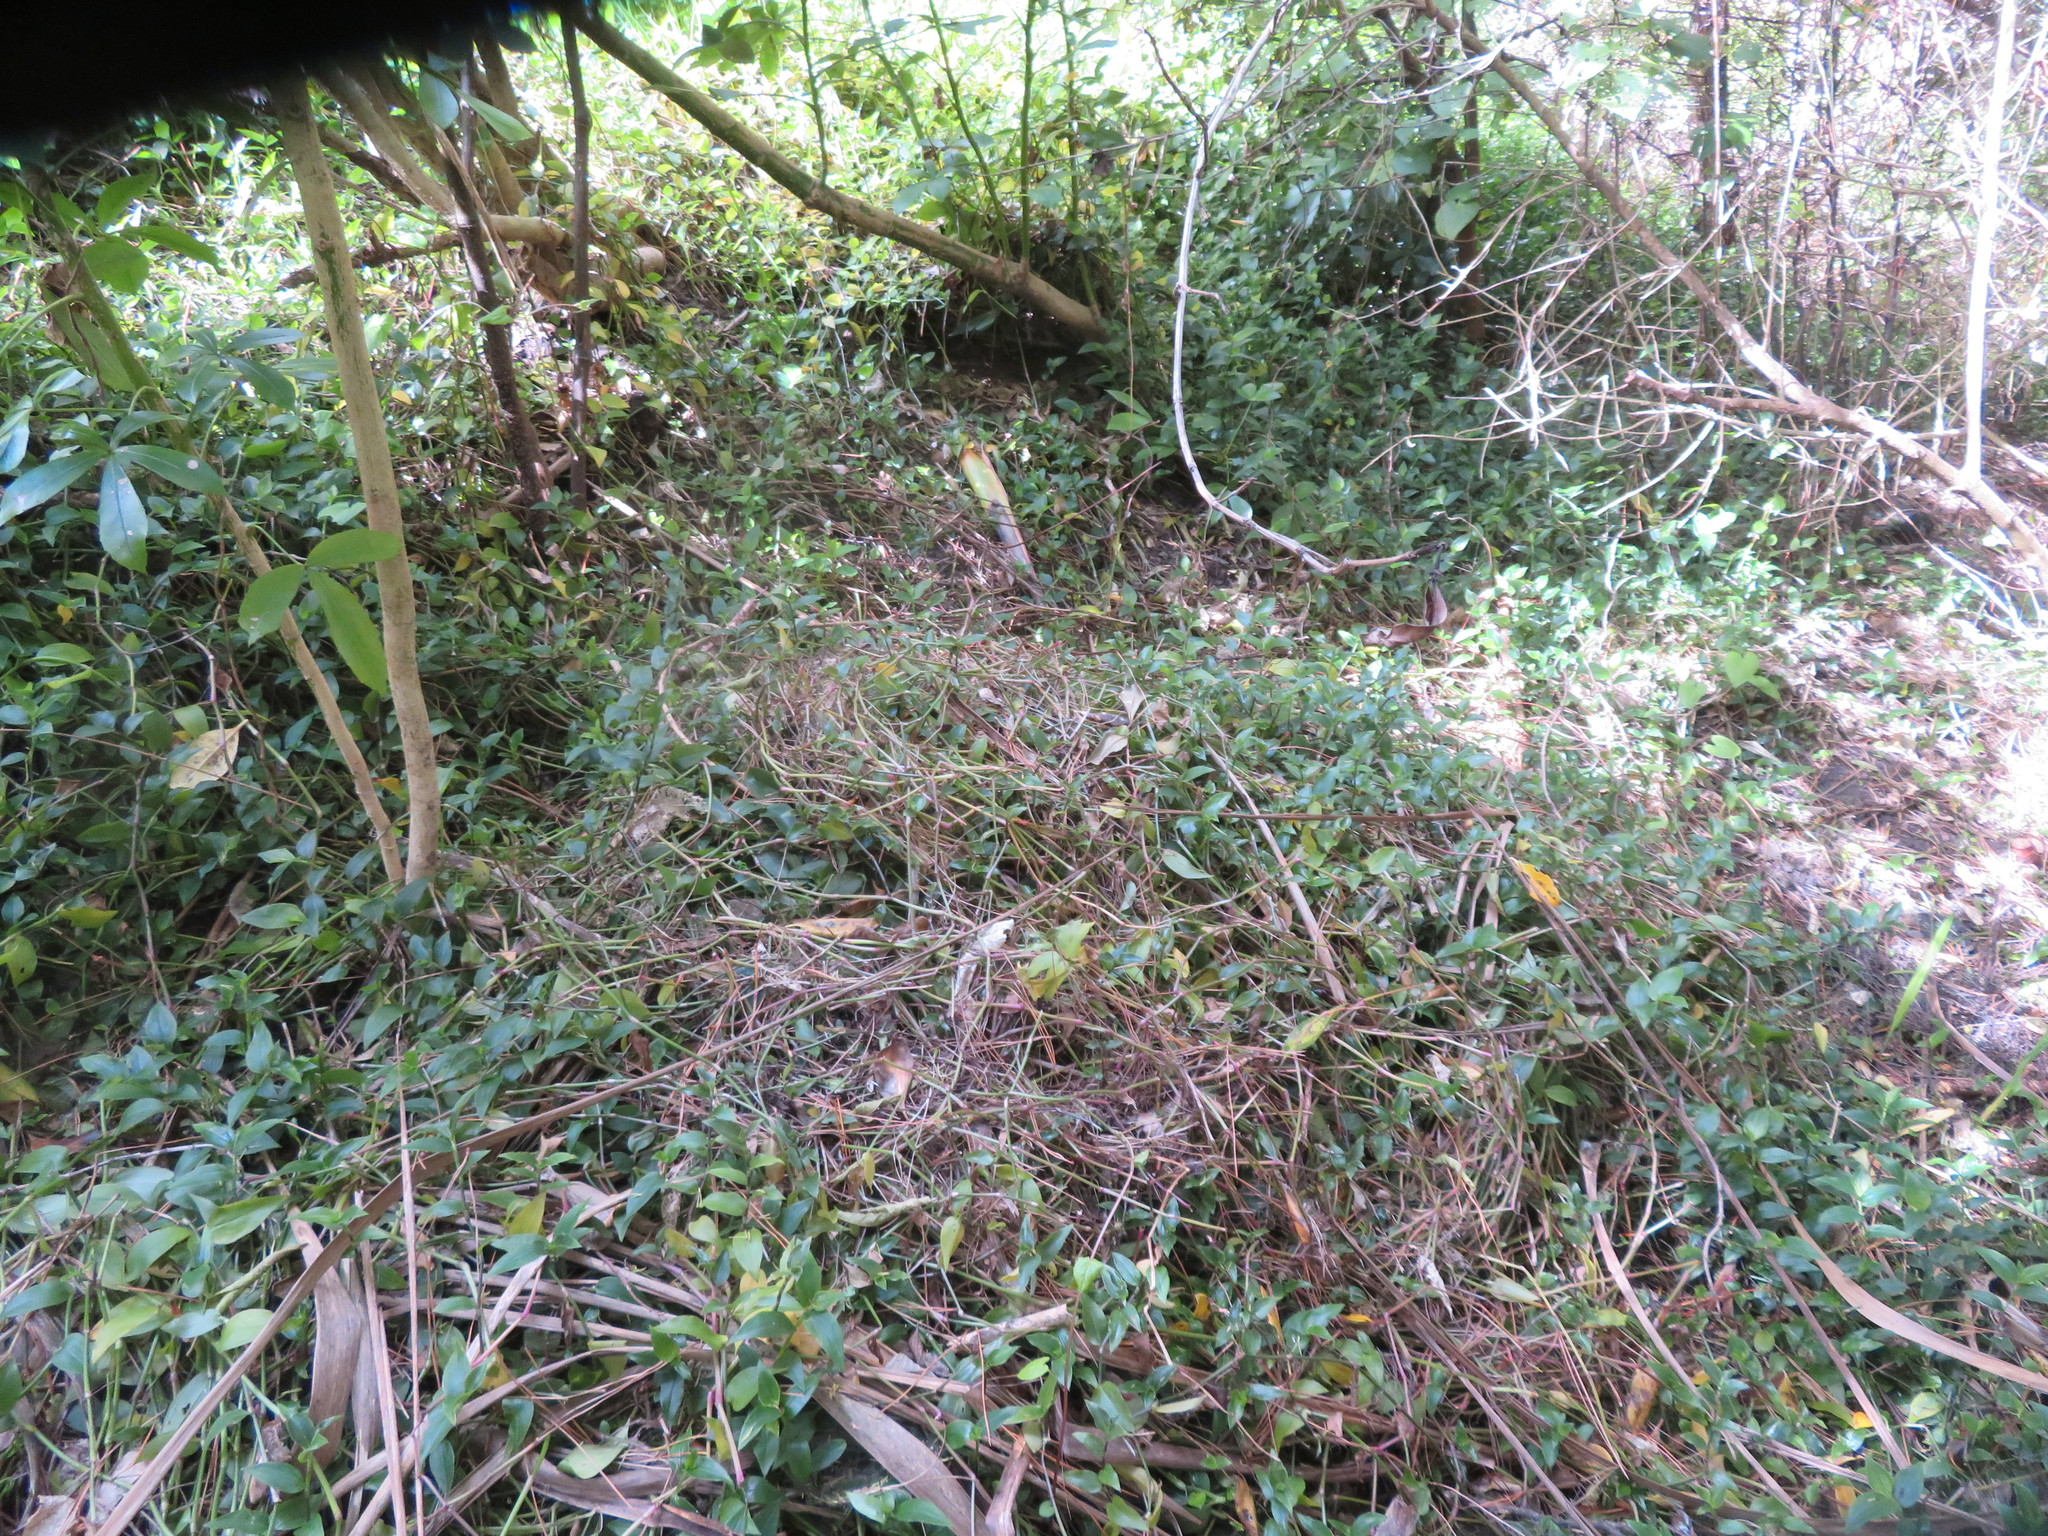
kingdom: Plantae
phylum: Tracheophyta
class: Liliopsida
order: Commelinales
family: Commelinaceae
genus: Tradescantia
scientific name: Tradescantia fluminensis
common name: Wandering-jew
